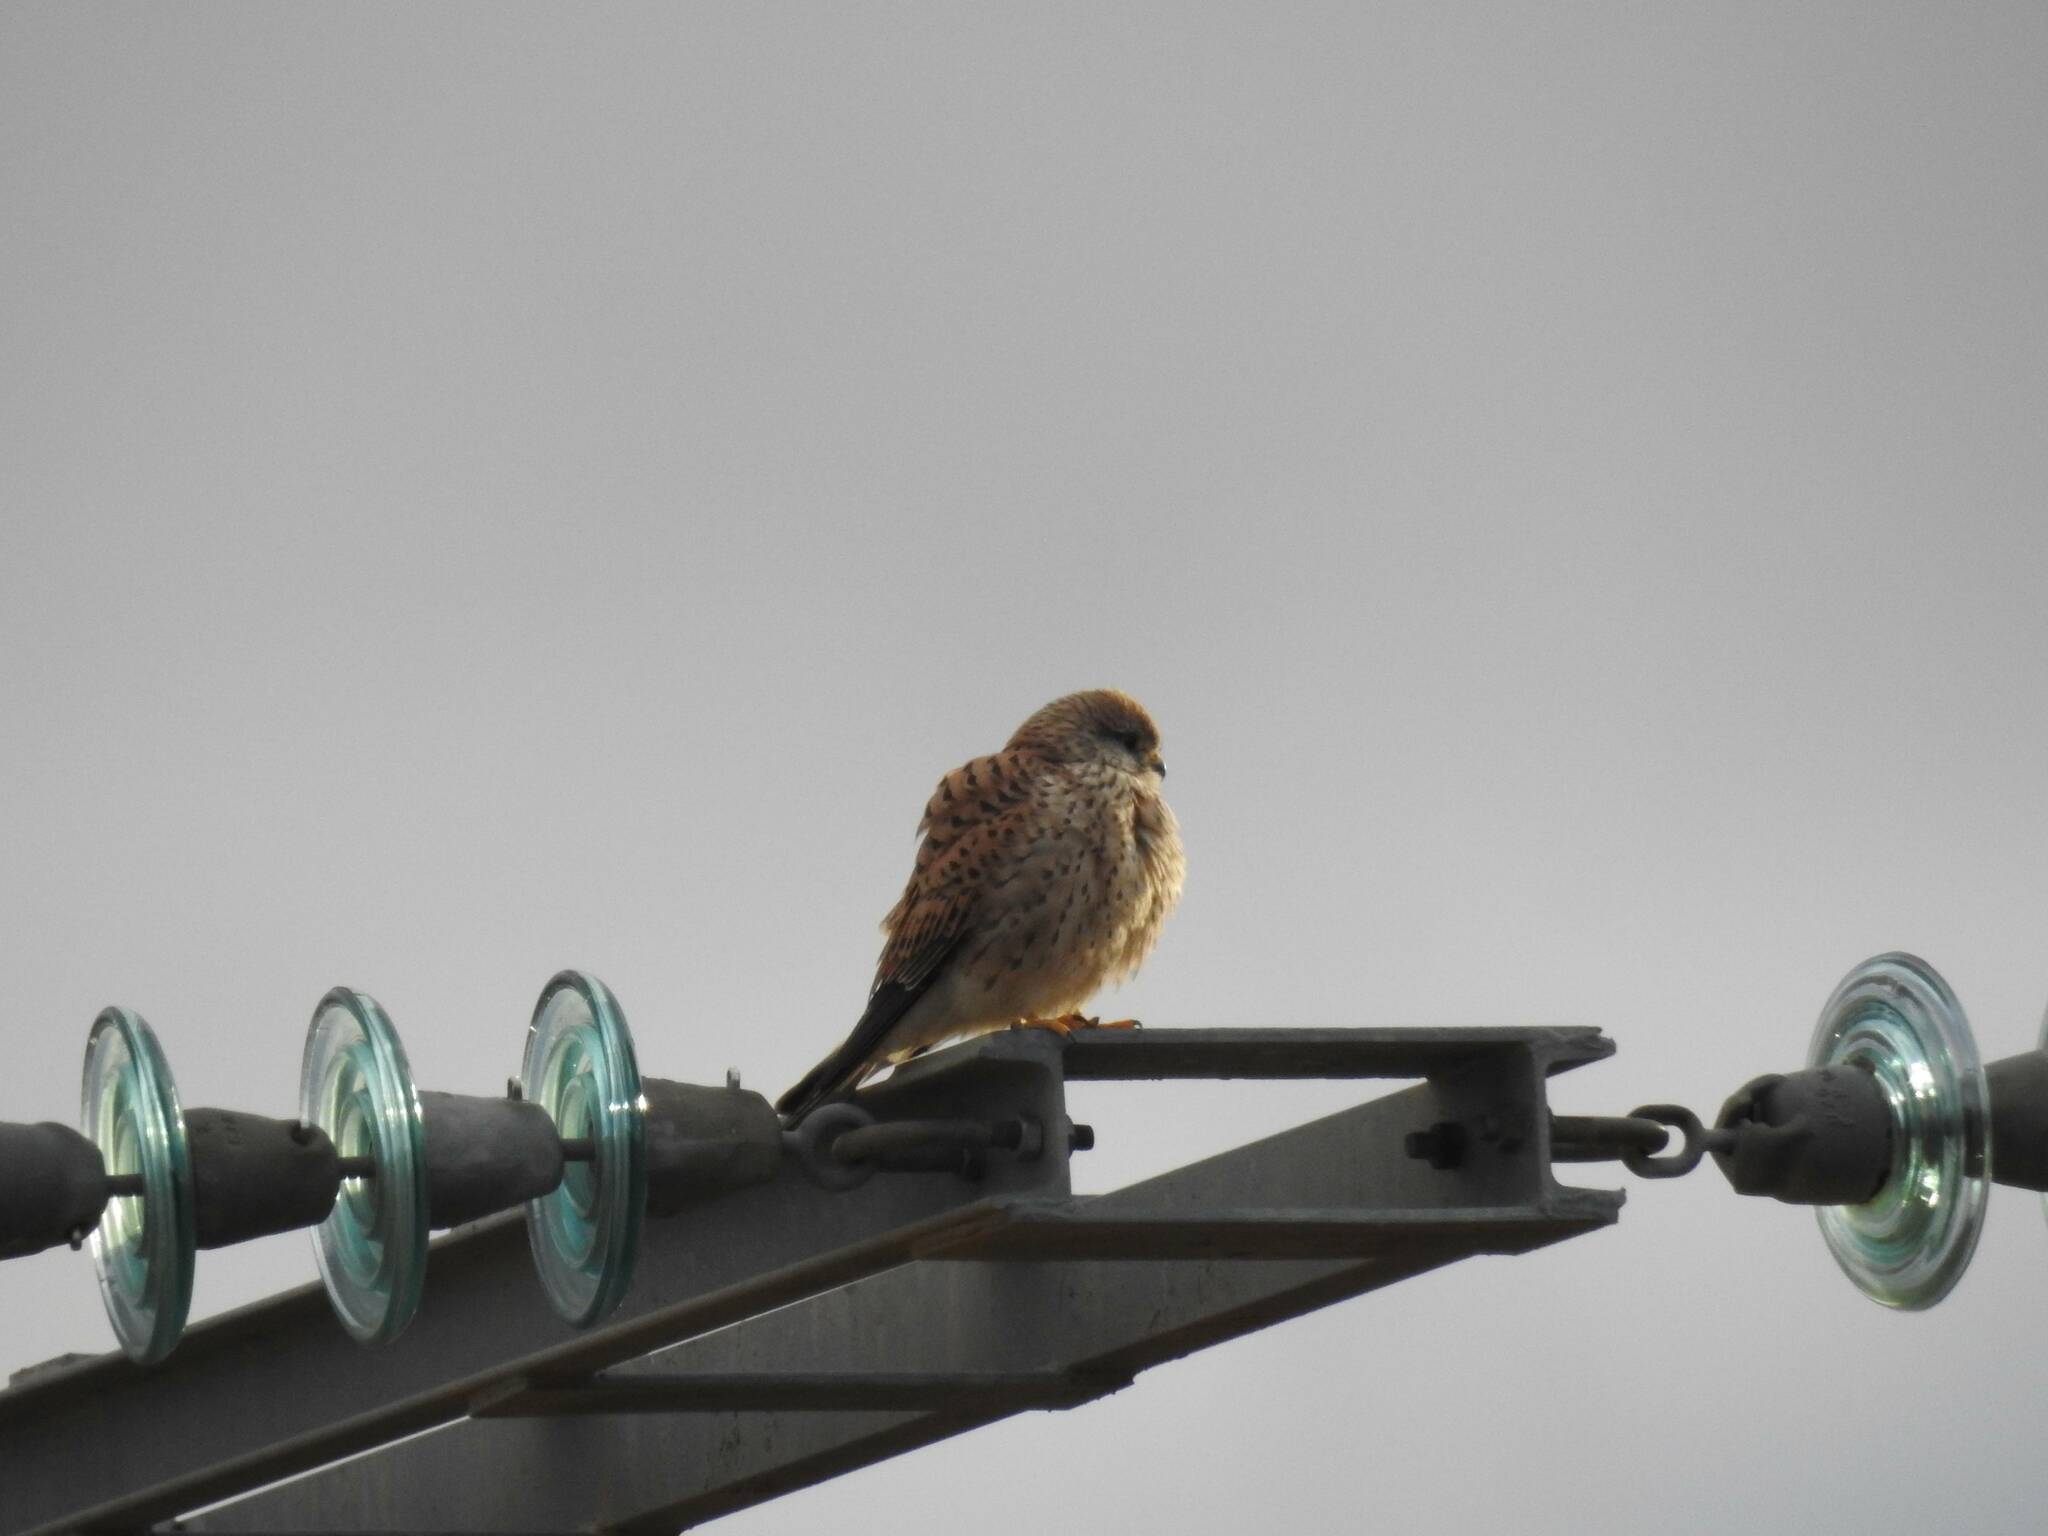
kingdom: Animalia
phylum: Chordata
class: Aves
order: Falconiformes
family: Falconidae
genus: Falco
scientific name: Falco tinnunculus
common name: Common kestrel
